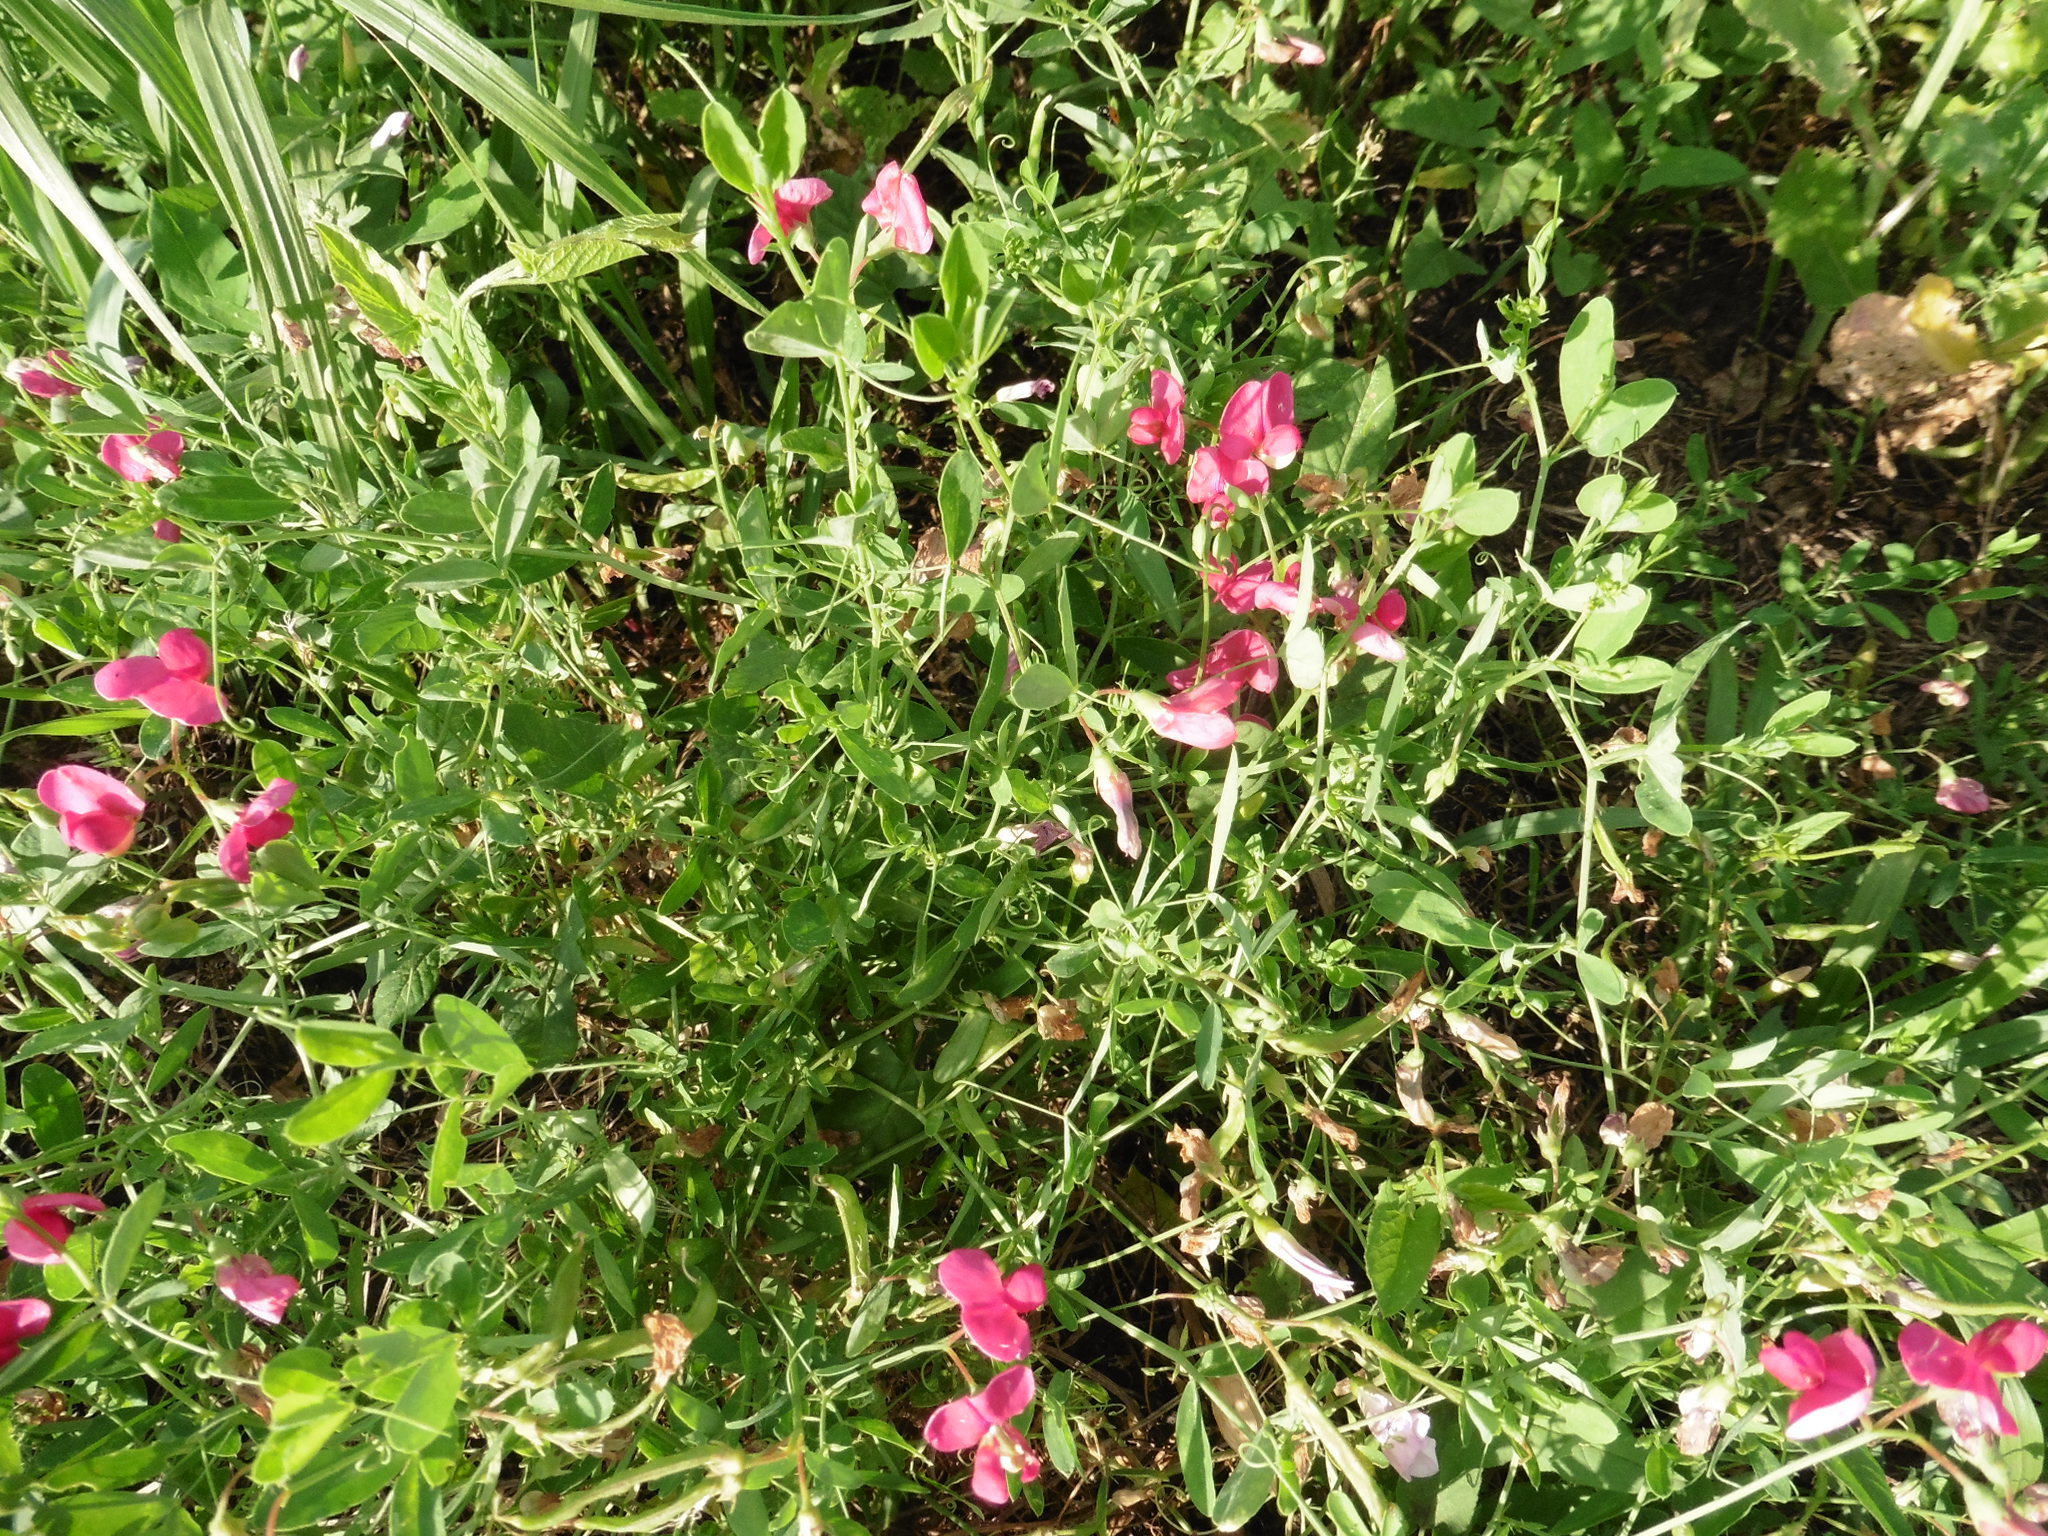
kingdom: Plantae
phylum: Tracheophyta
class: Magnoliopsida
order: Fabales
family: Fabaceae
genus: Lathyrus
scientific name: Lathyrus tuberosus
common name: Tuberous pea
